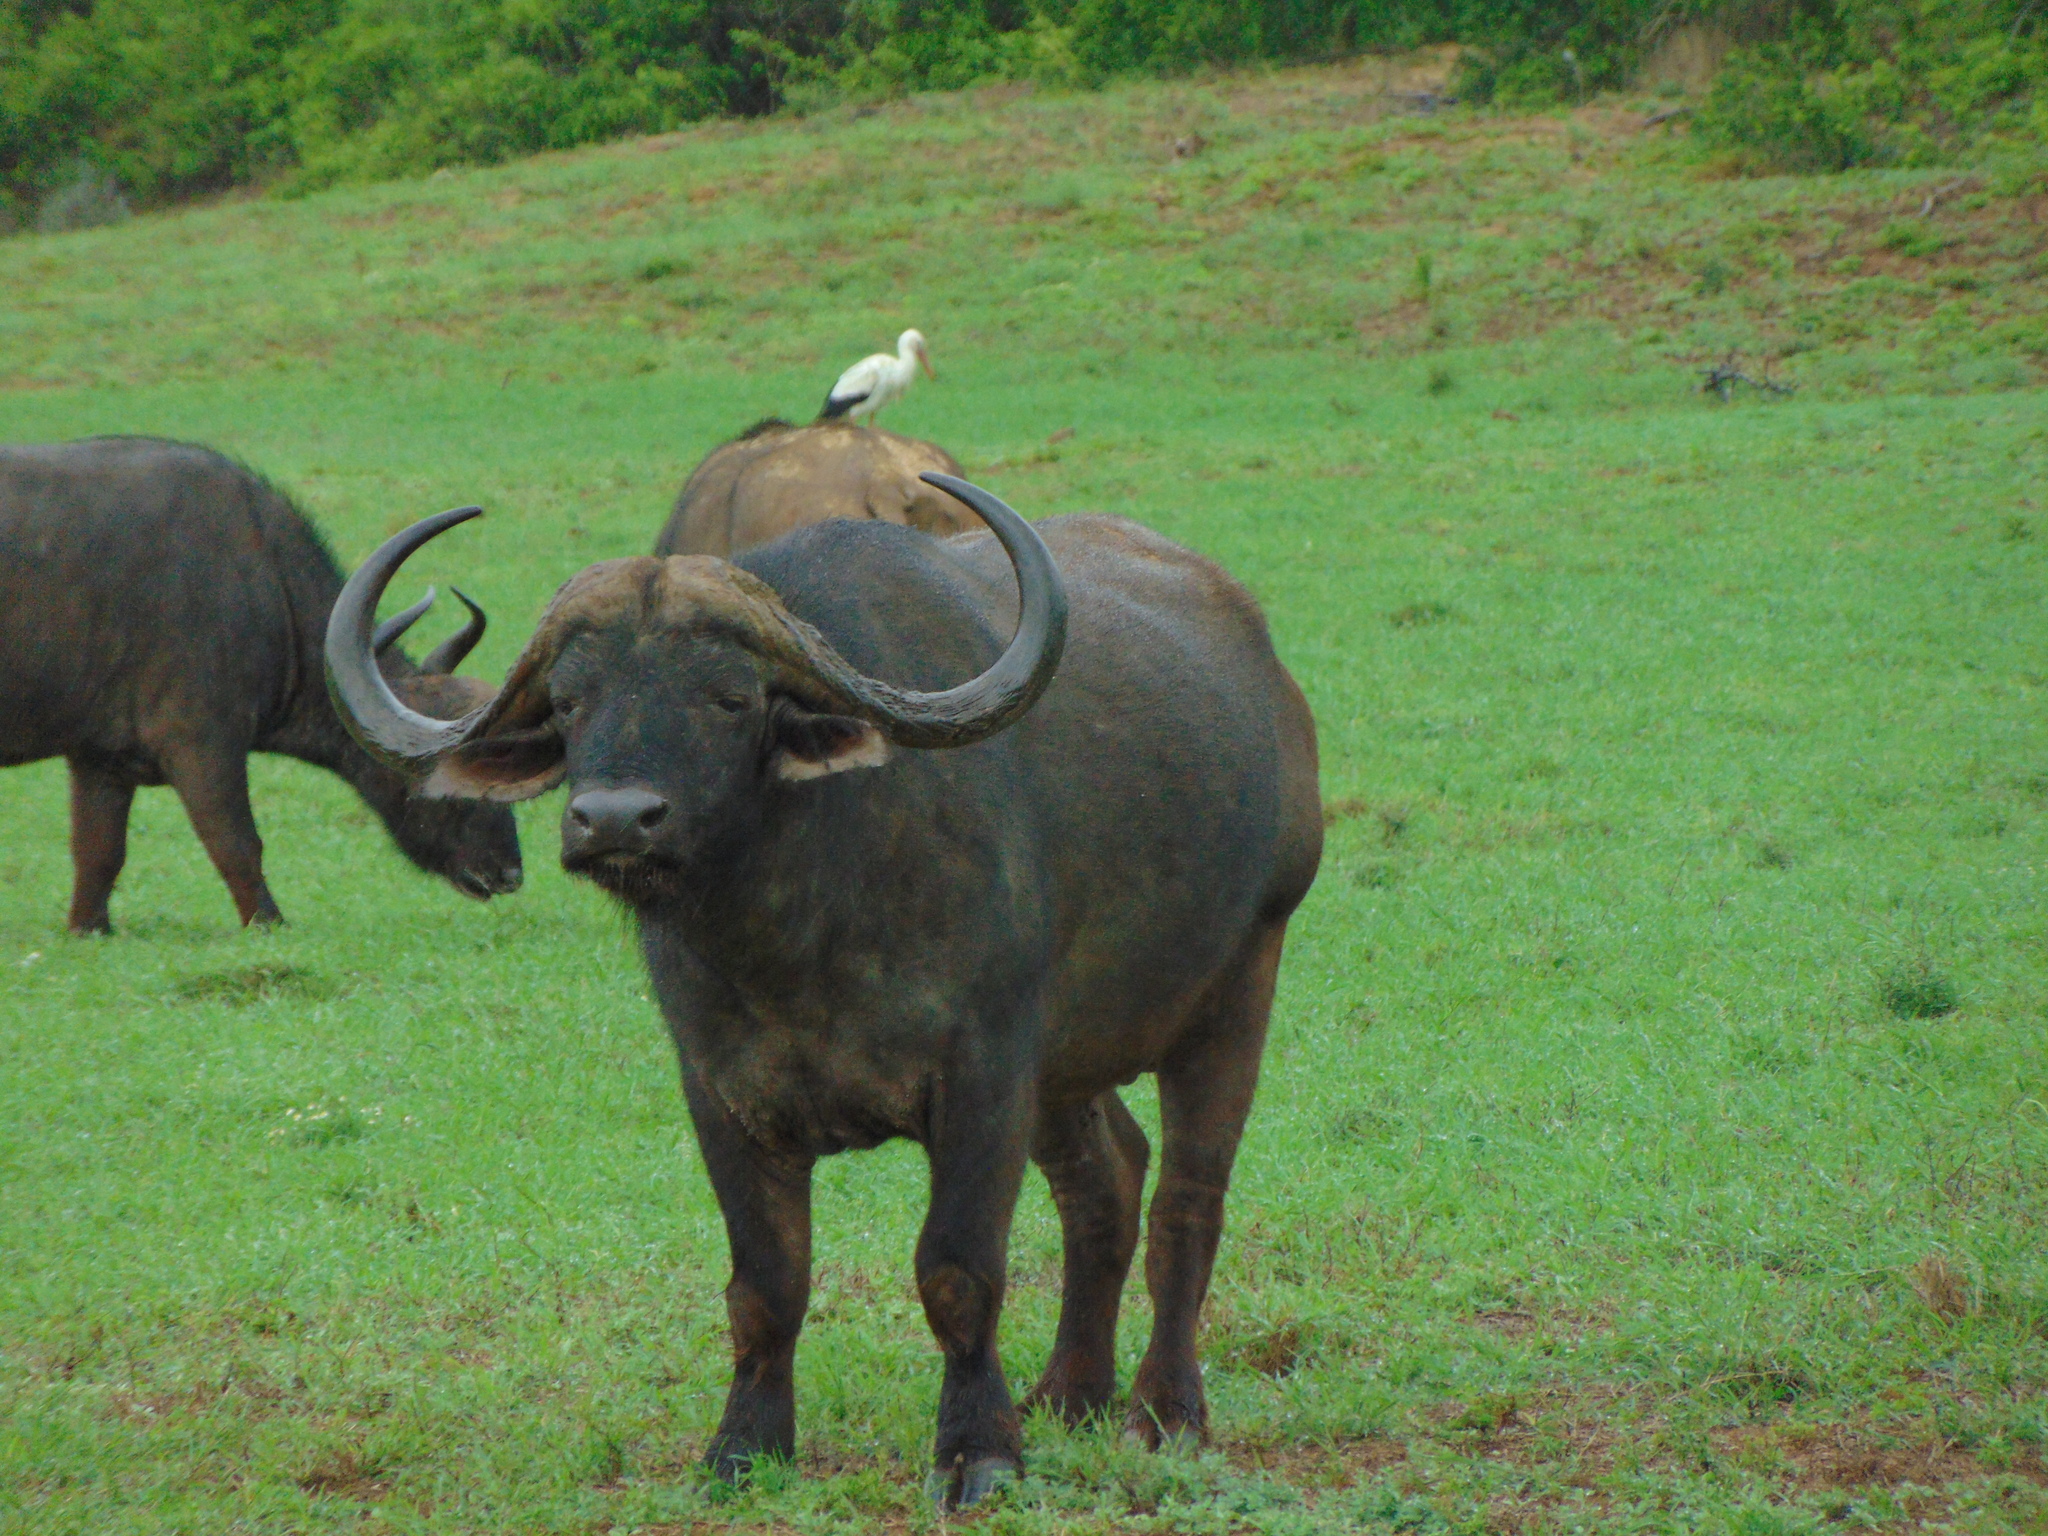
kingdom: Animalia
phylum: Chordata
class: Mammalia
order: Artiodactyla
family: Bovidae
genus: Syncerus
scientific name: Syncerus caffer
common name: African buffalo
